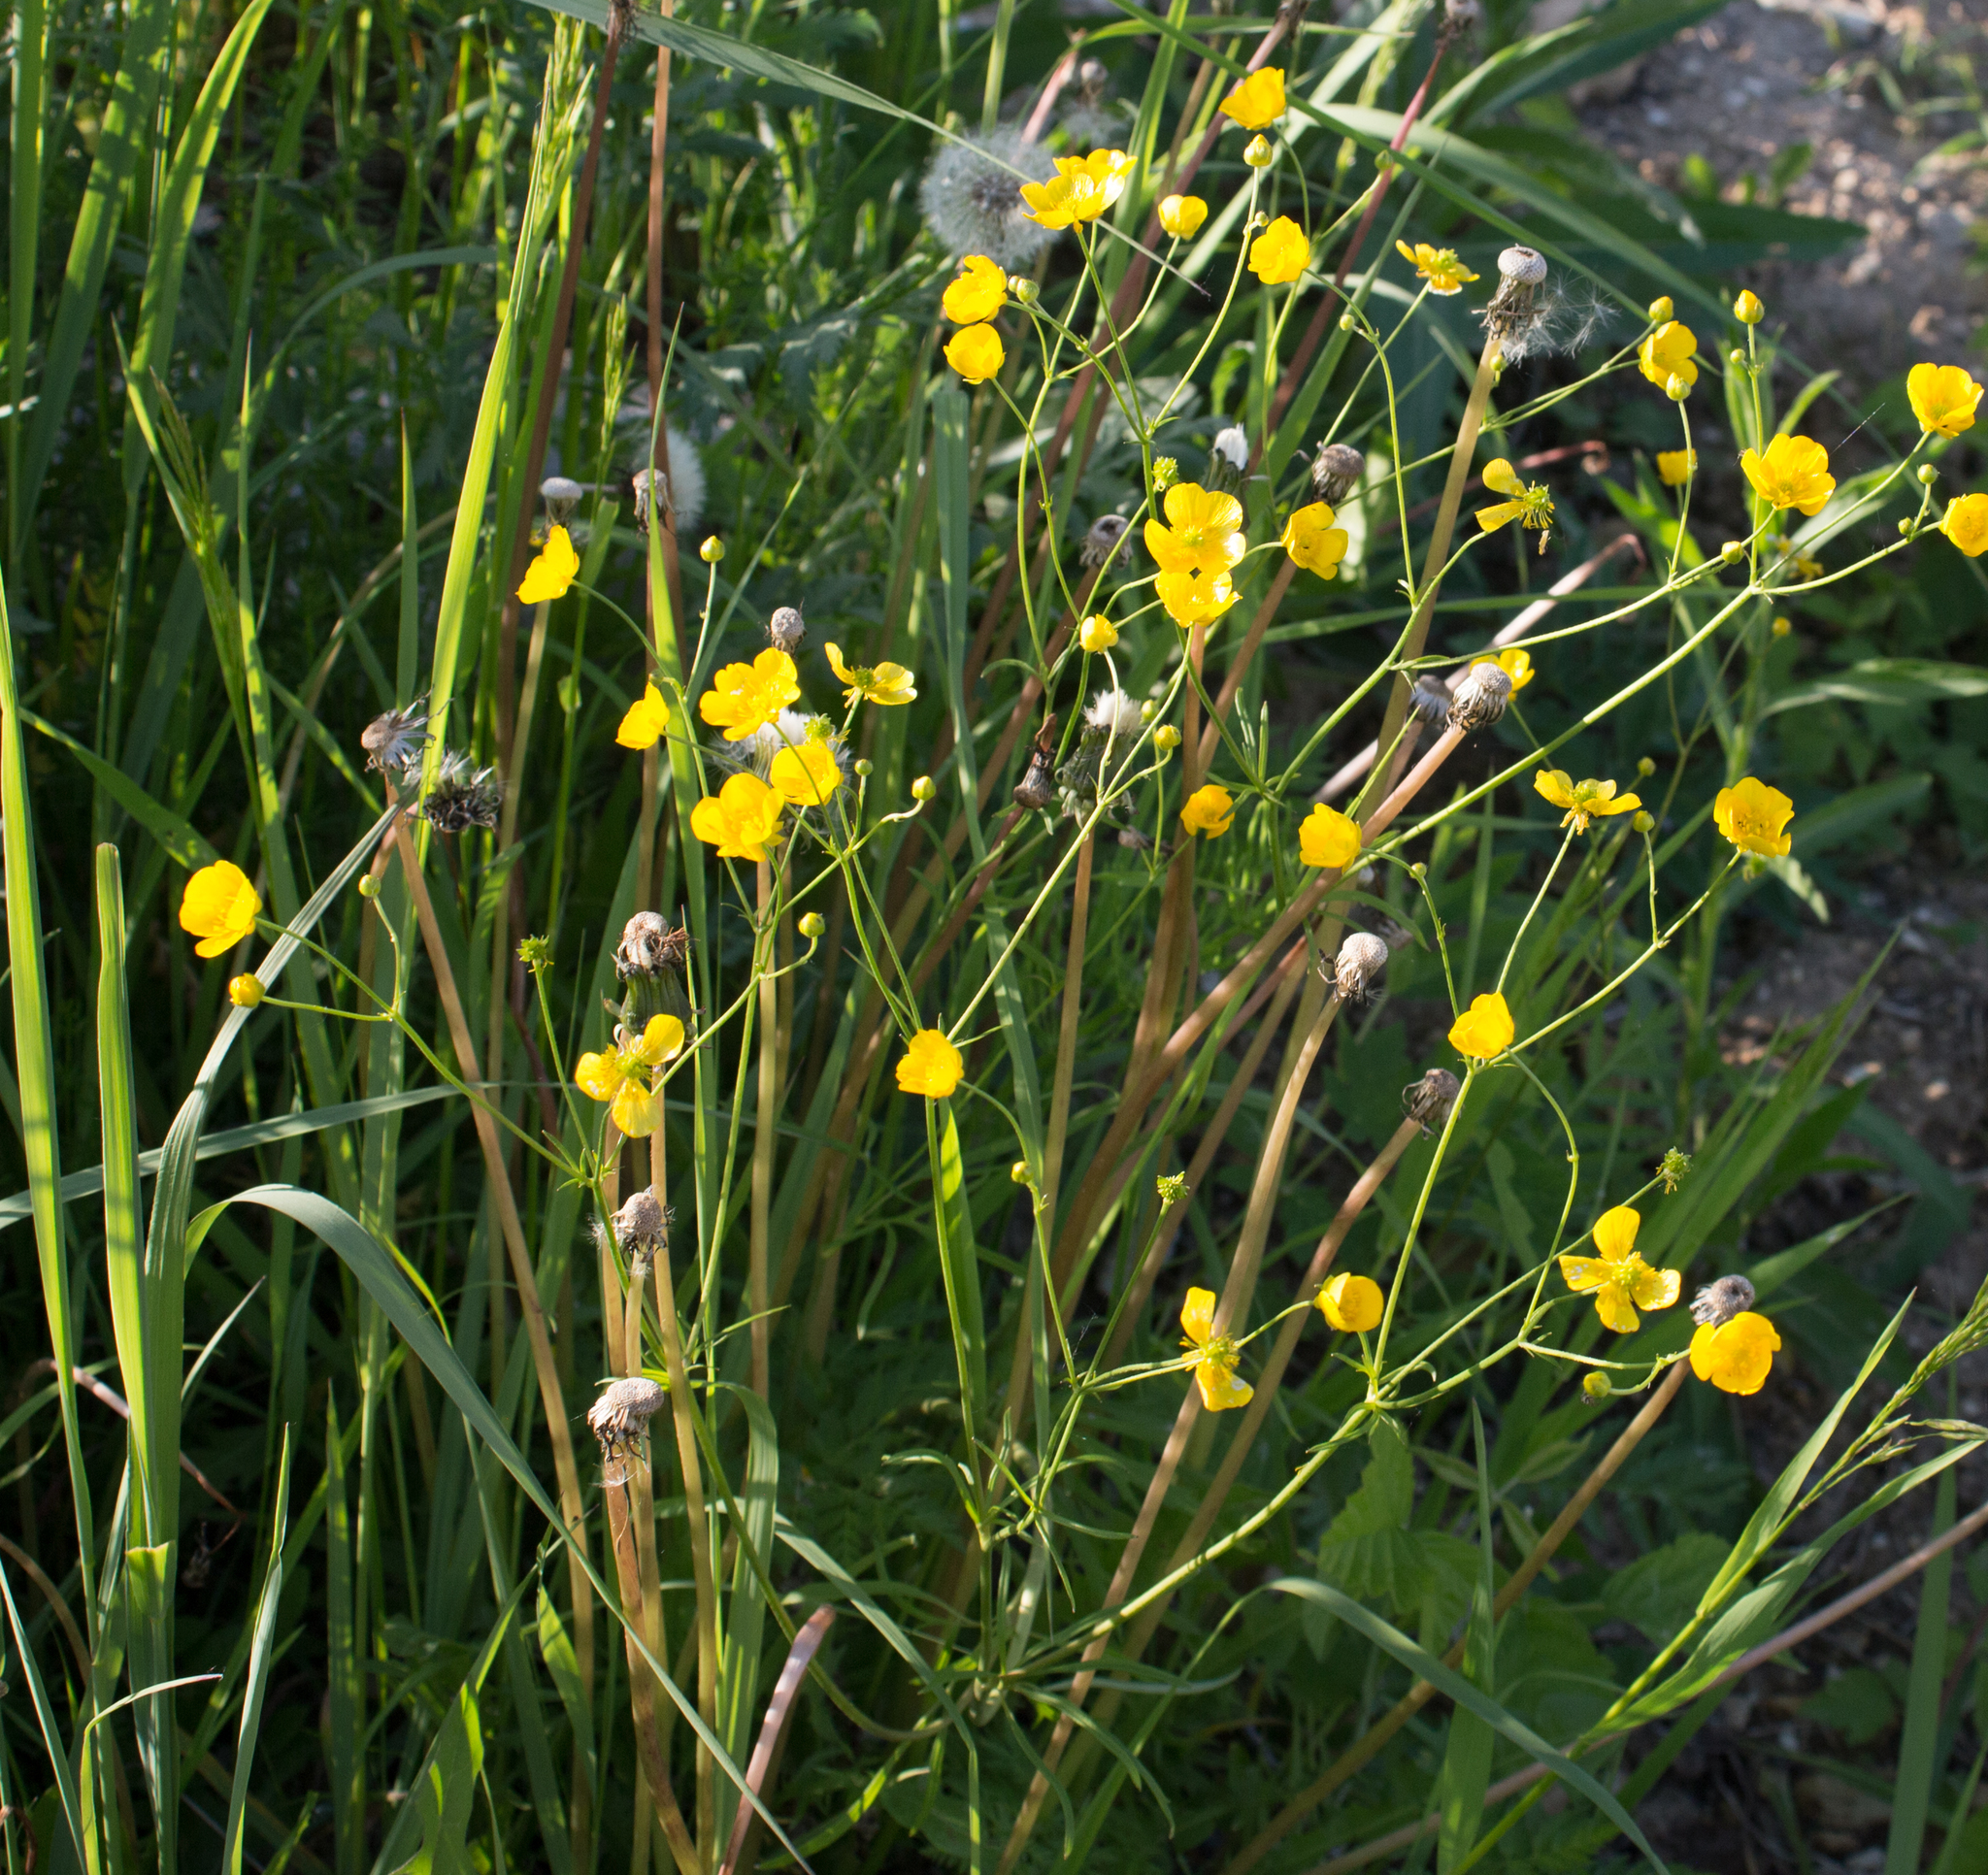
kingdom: Plantae
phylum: Tracheophyta
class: Magnoliopsida
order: Ranunculales
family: Ranunculaceae
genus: Ranunculus
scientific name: Ranunculus acris
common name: Meadow buttercup
